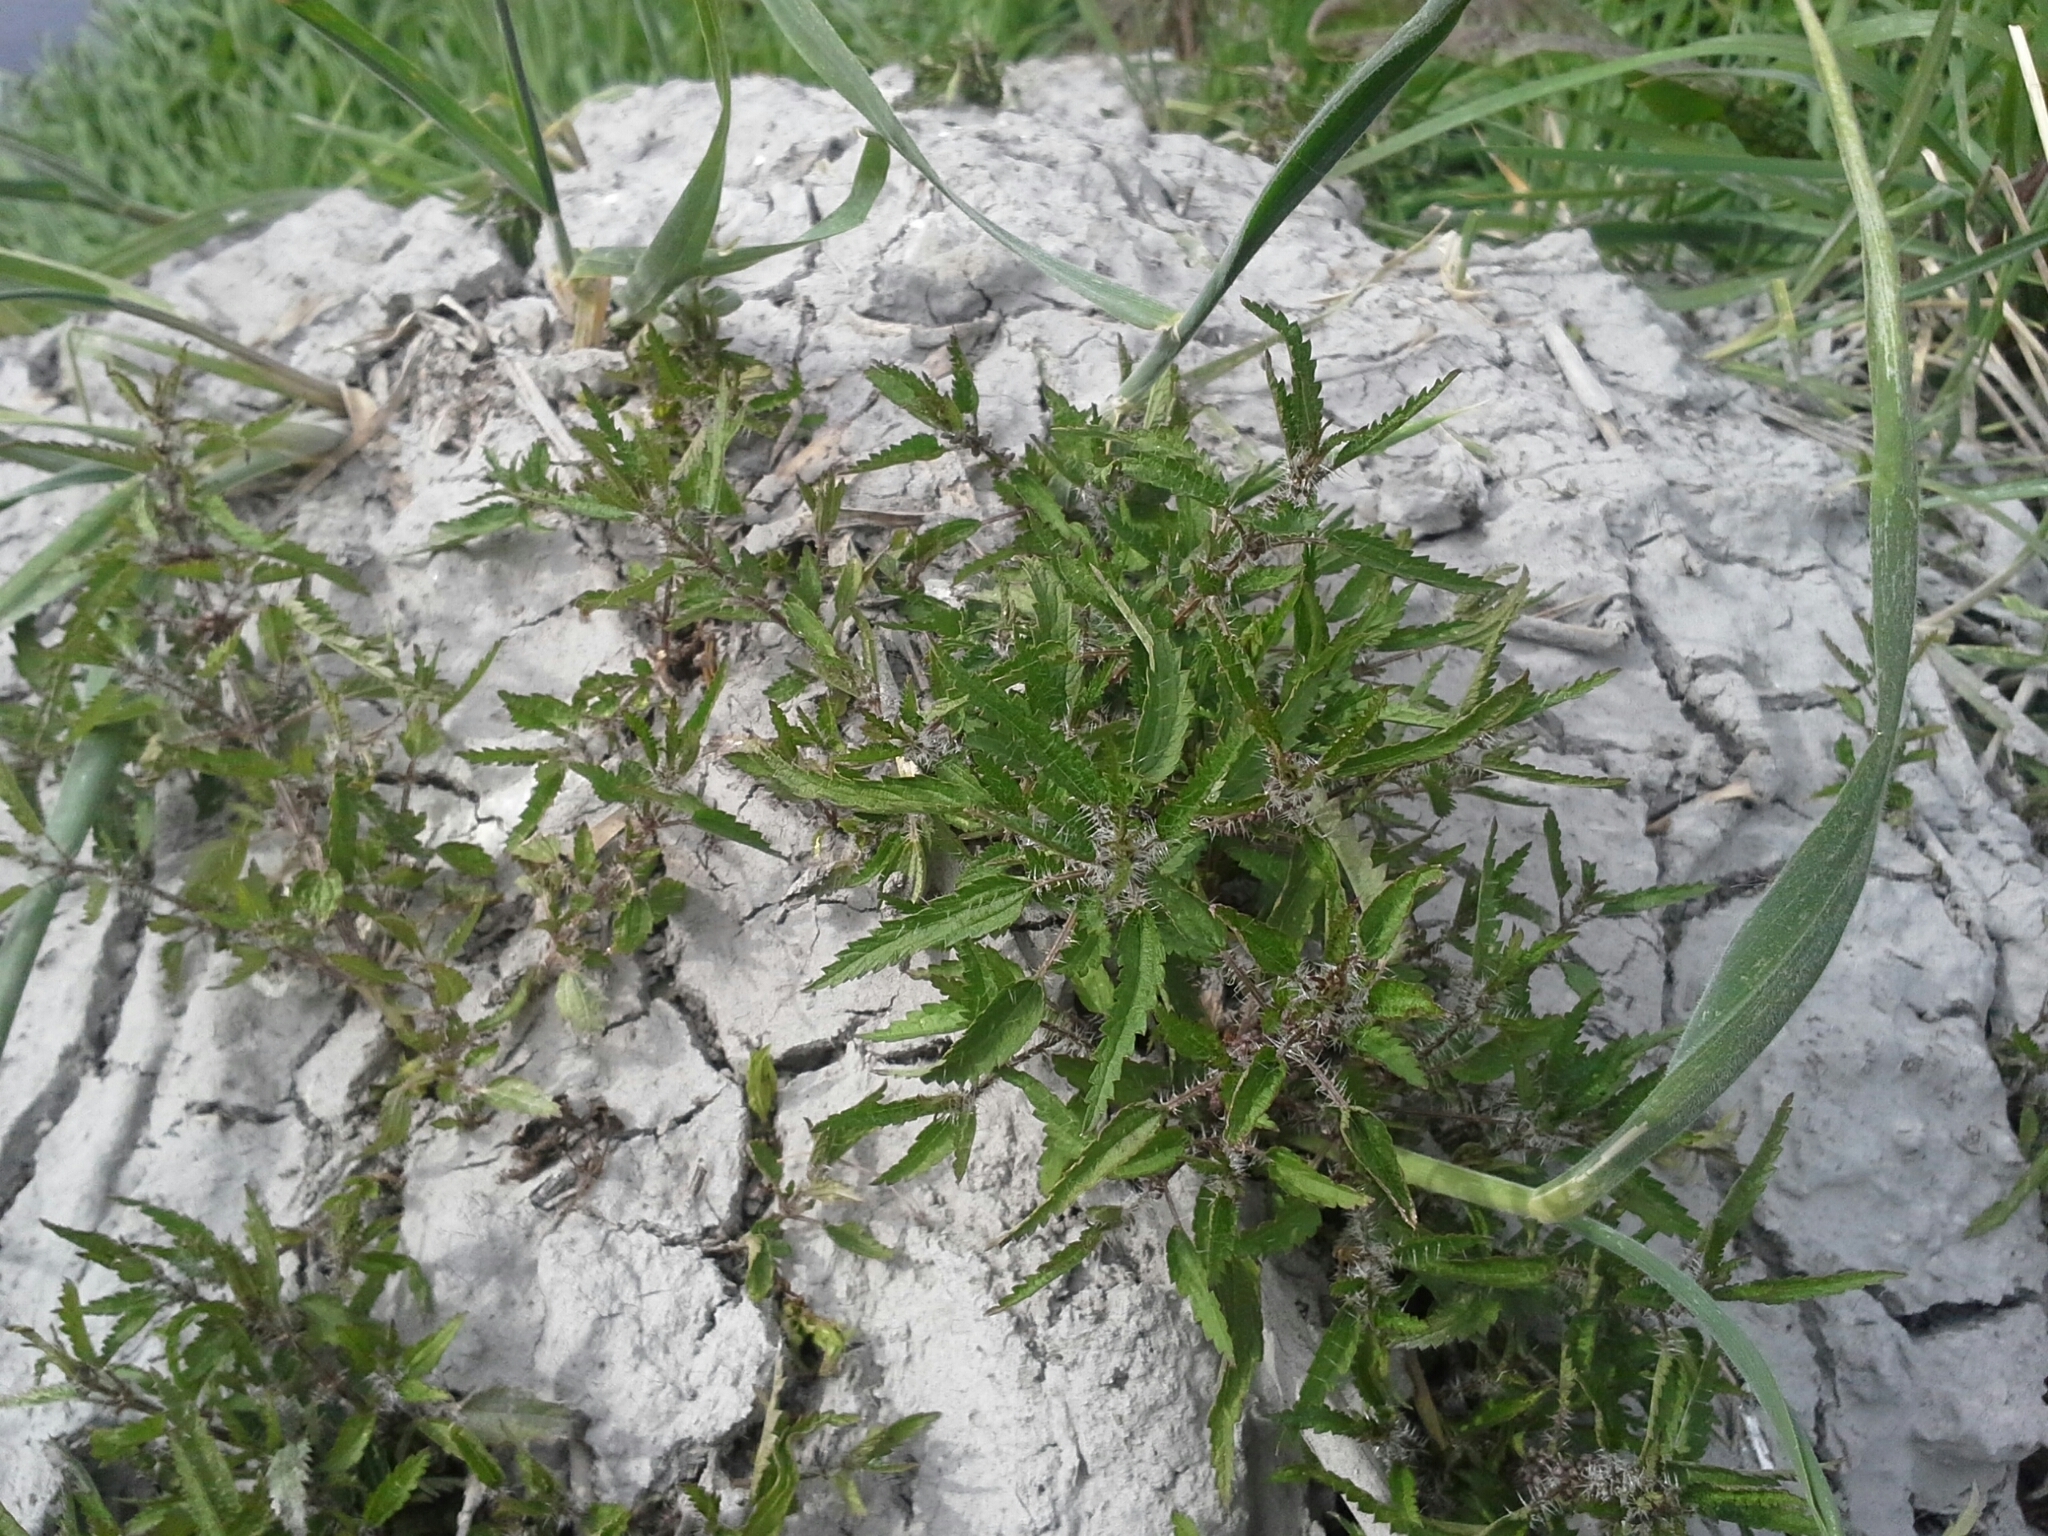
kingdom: Plantae
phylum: Tracheophyta
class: Magnoliopsida
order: Rosales
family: Urticaceae
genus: Urtica
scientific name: Urtica perconfusa
